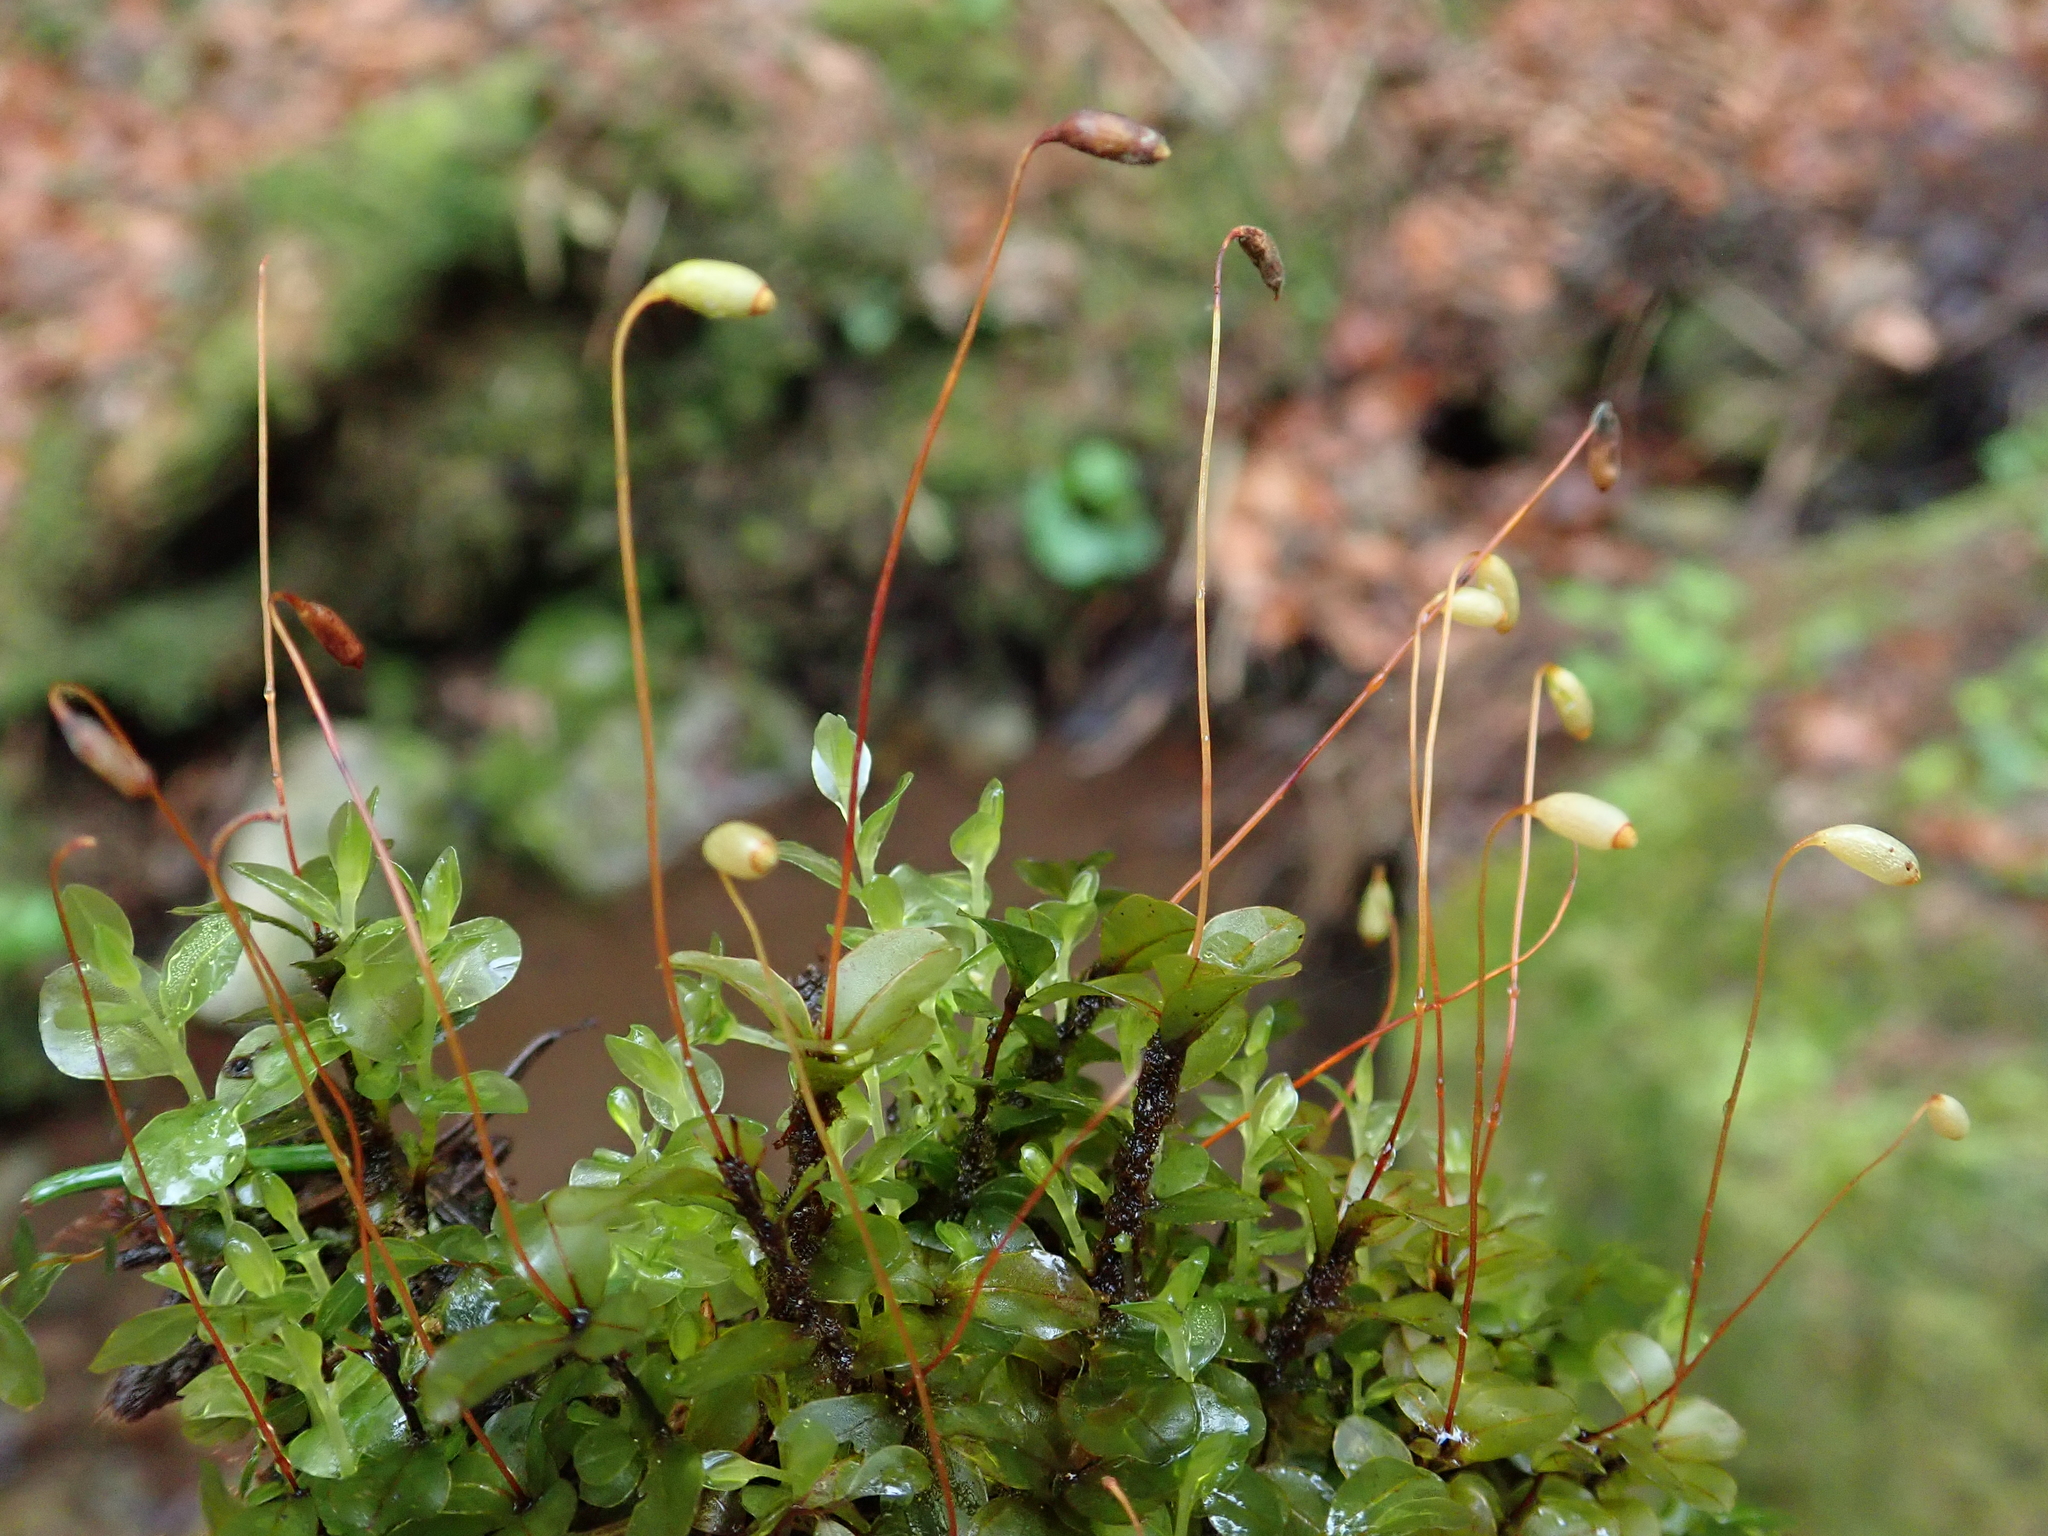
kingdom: Plantae
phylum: Bryophyta
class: Bryopsida
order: Bryales
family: Mniaceae
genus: Rhizomnium
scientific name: Rhizomnium punctatum
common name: Dotted leafy moss
